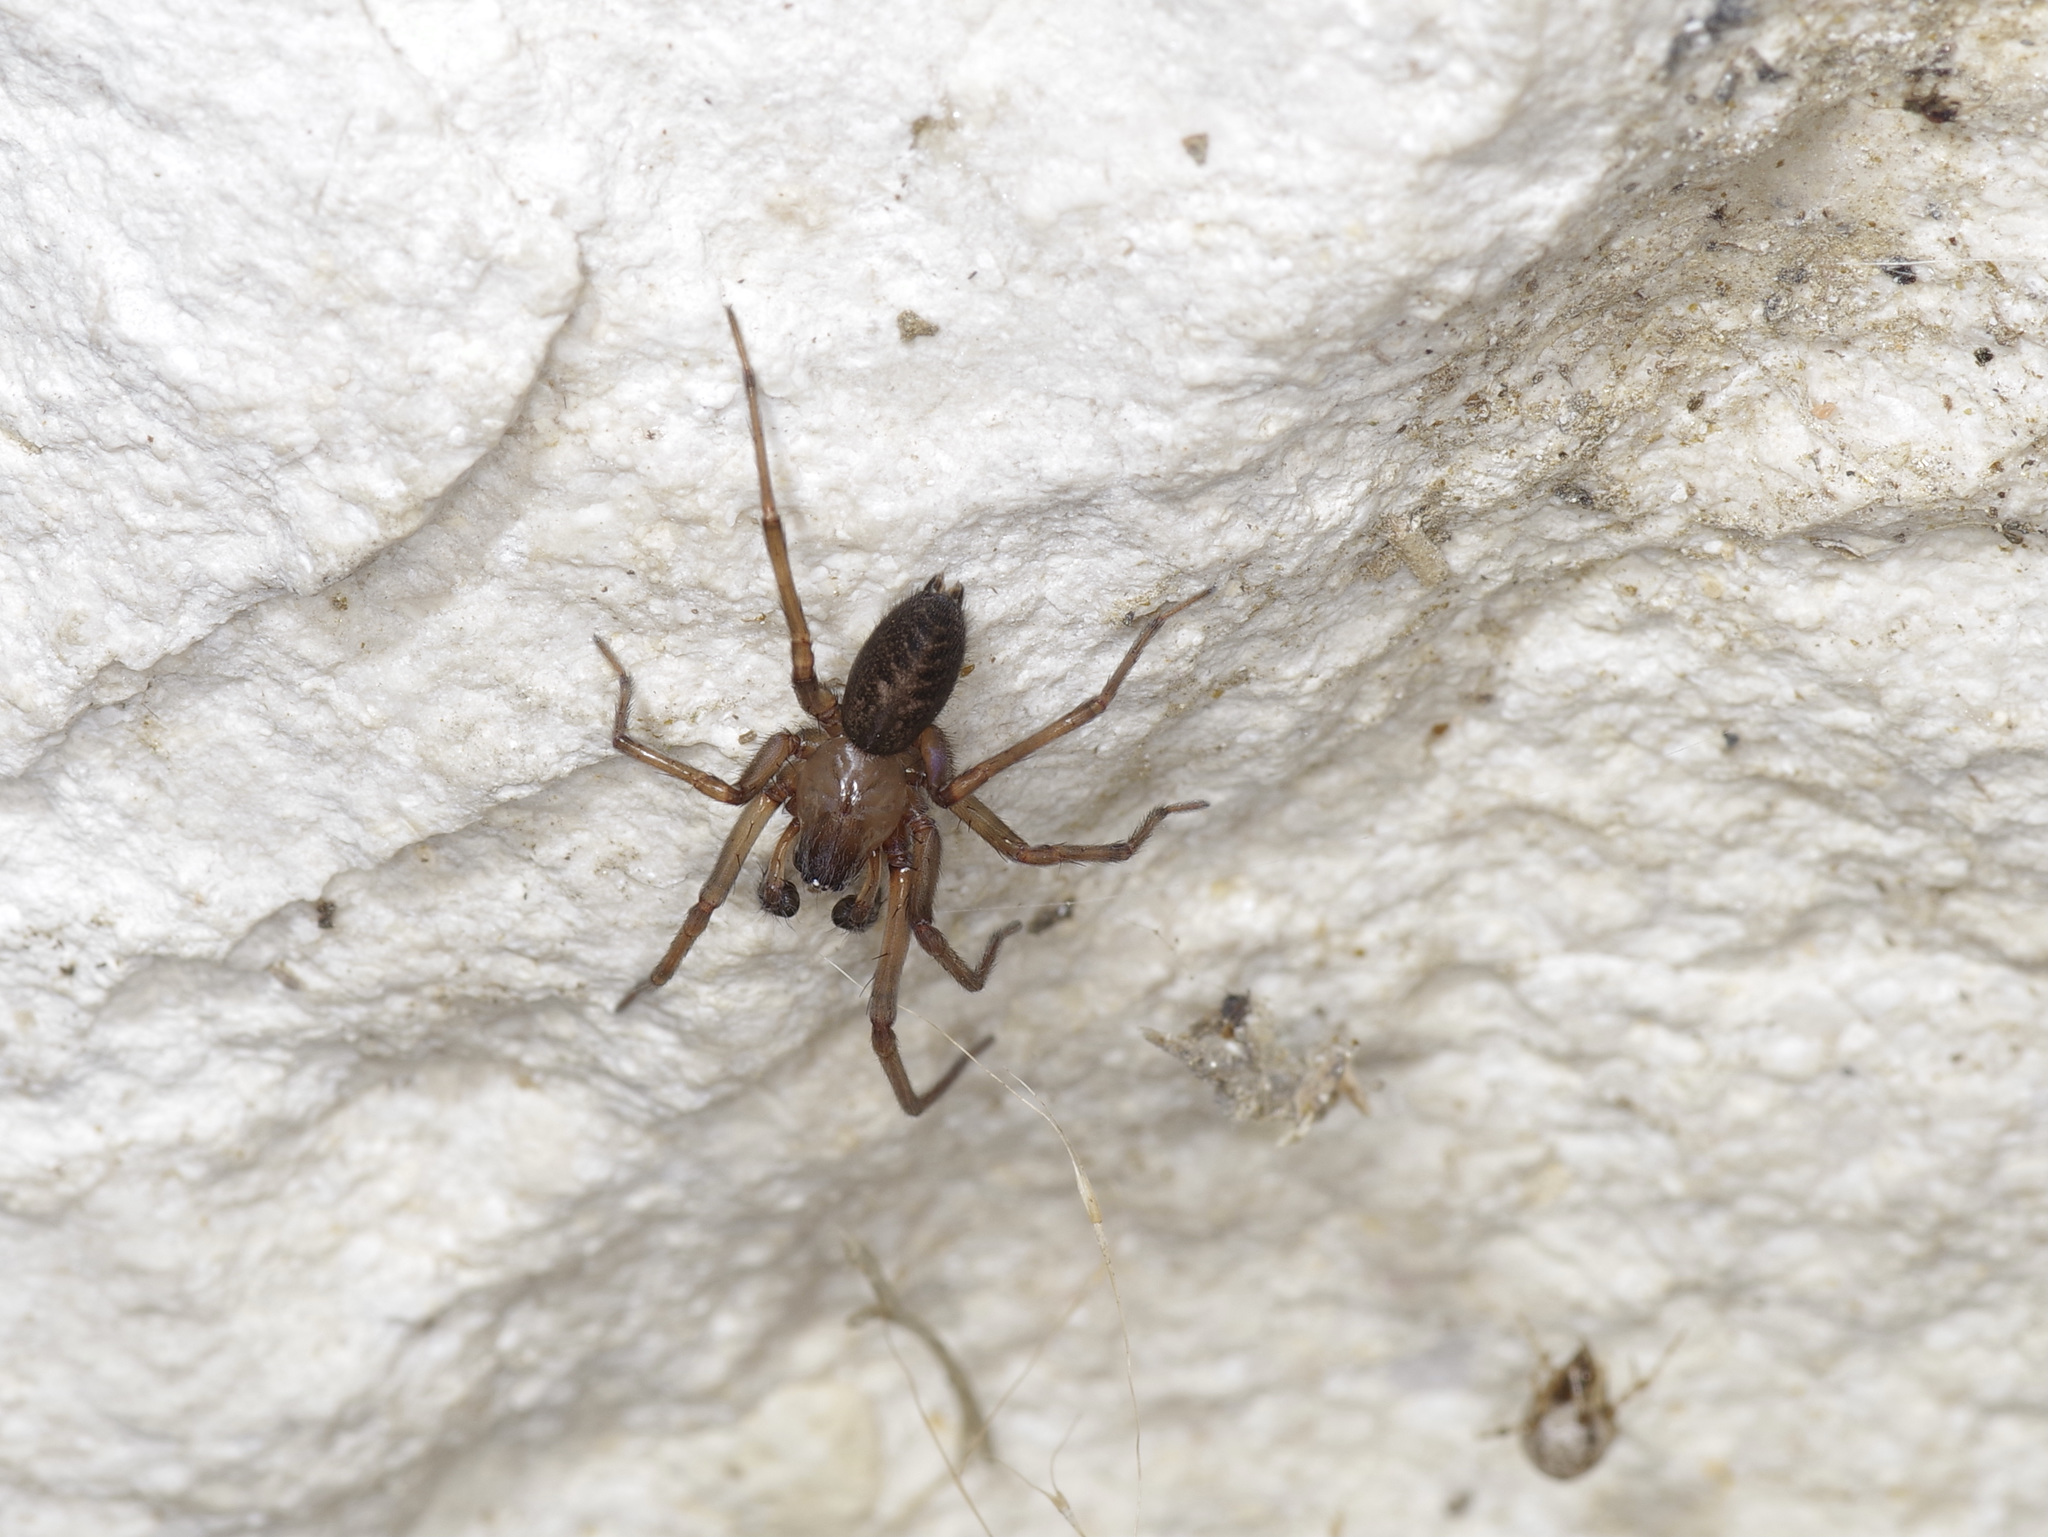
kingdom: Animalia
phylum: Arthropoda
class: Arachnida
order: Araneae
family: Desidae
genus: Metaltella
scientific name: Metaltella simoni
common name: Cribellate spider
